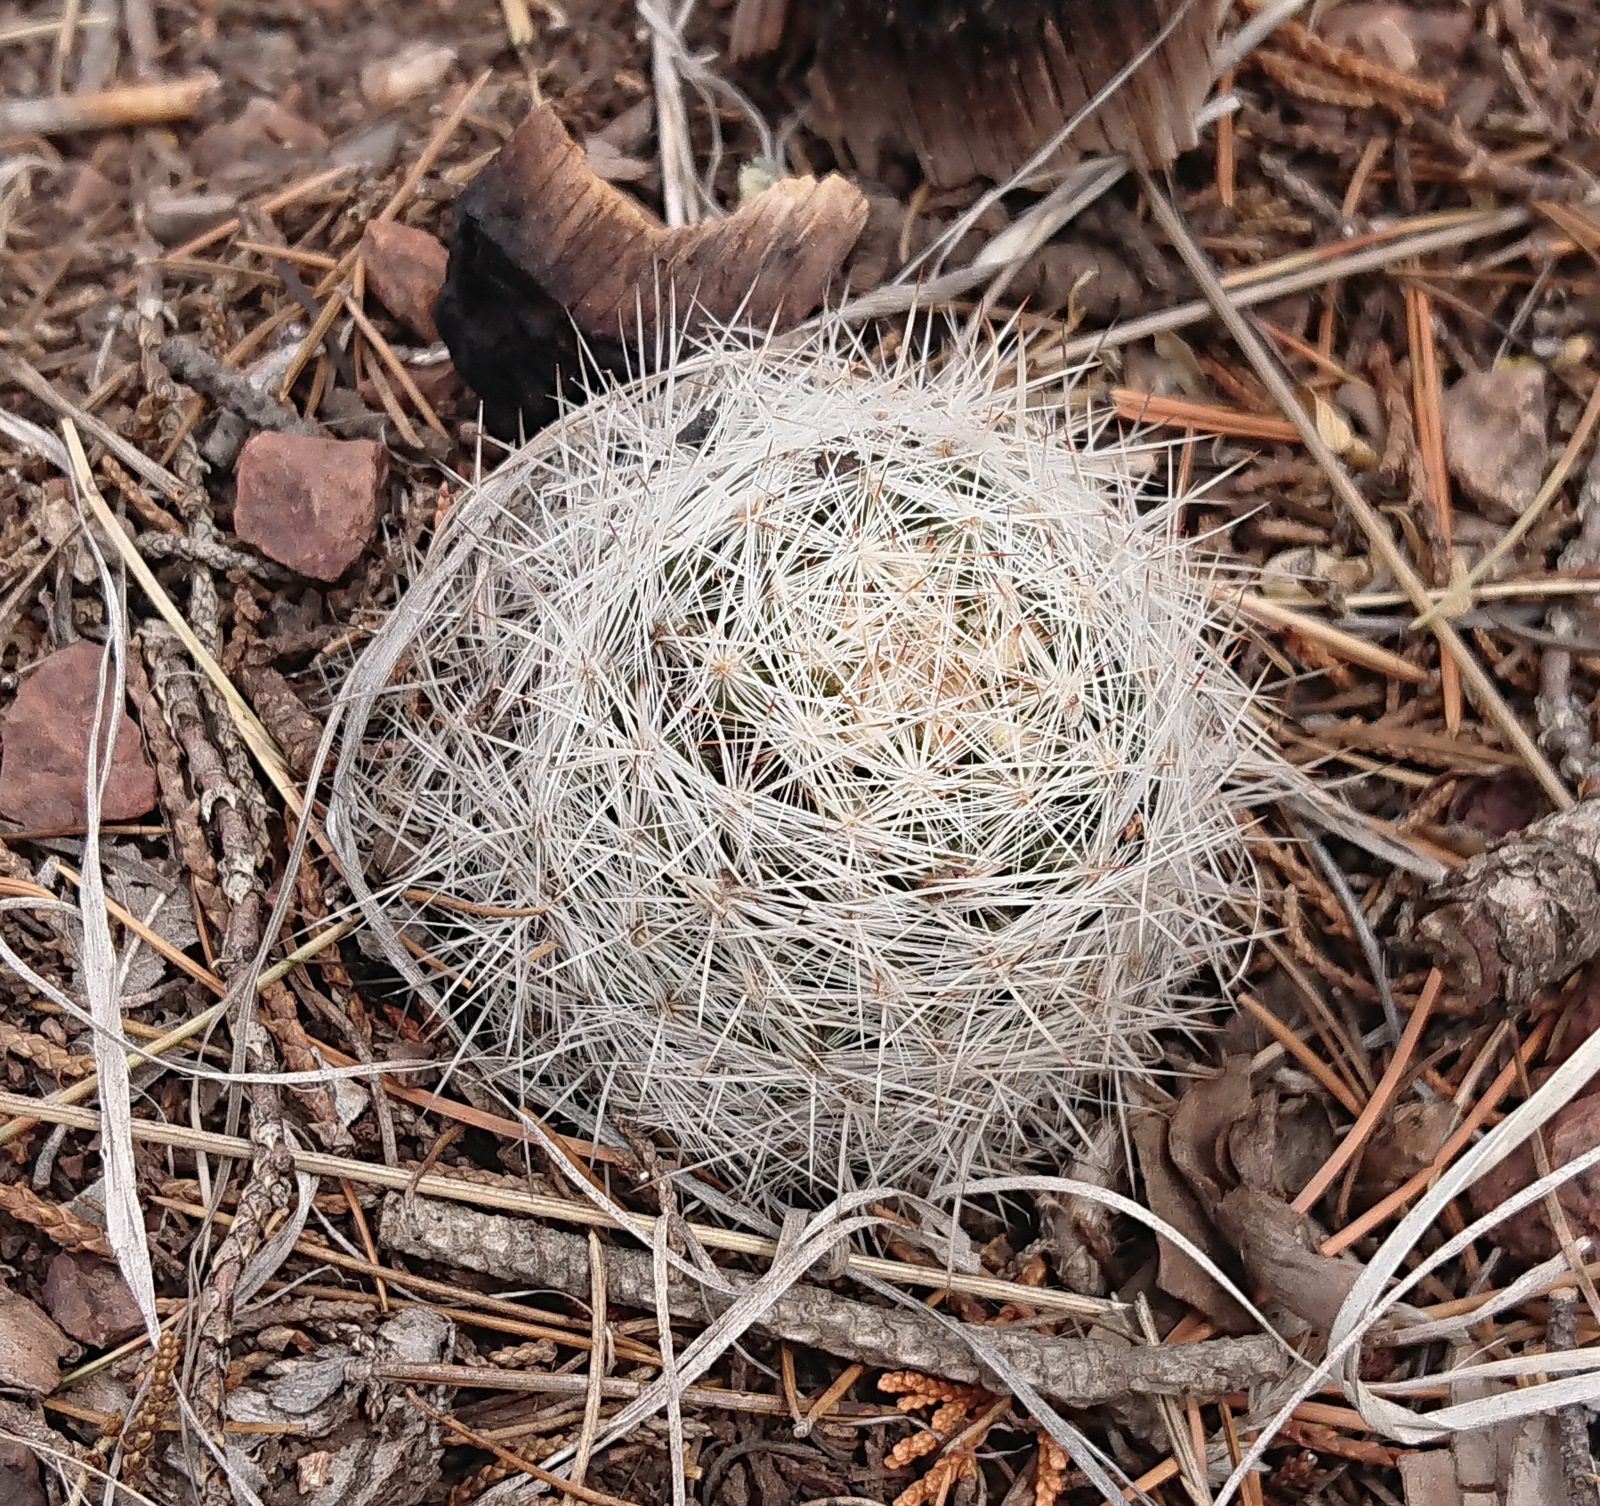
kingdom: Plantae
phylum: Tracheophyta
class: Magnoliopsida
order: Caryophyllales
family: Cactaceae
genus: Pelecyphora
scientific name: Pelecyphora vivipara
